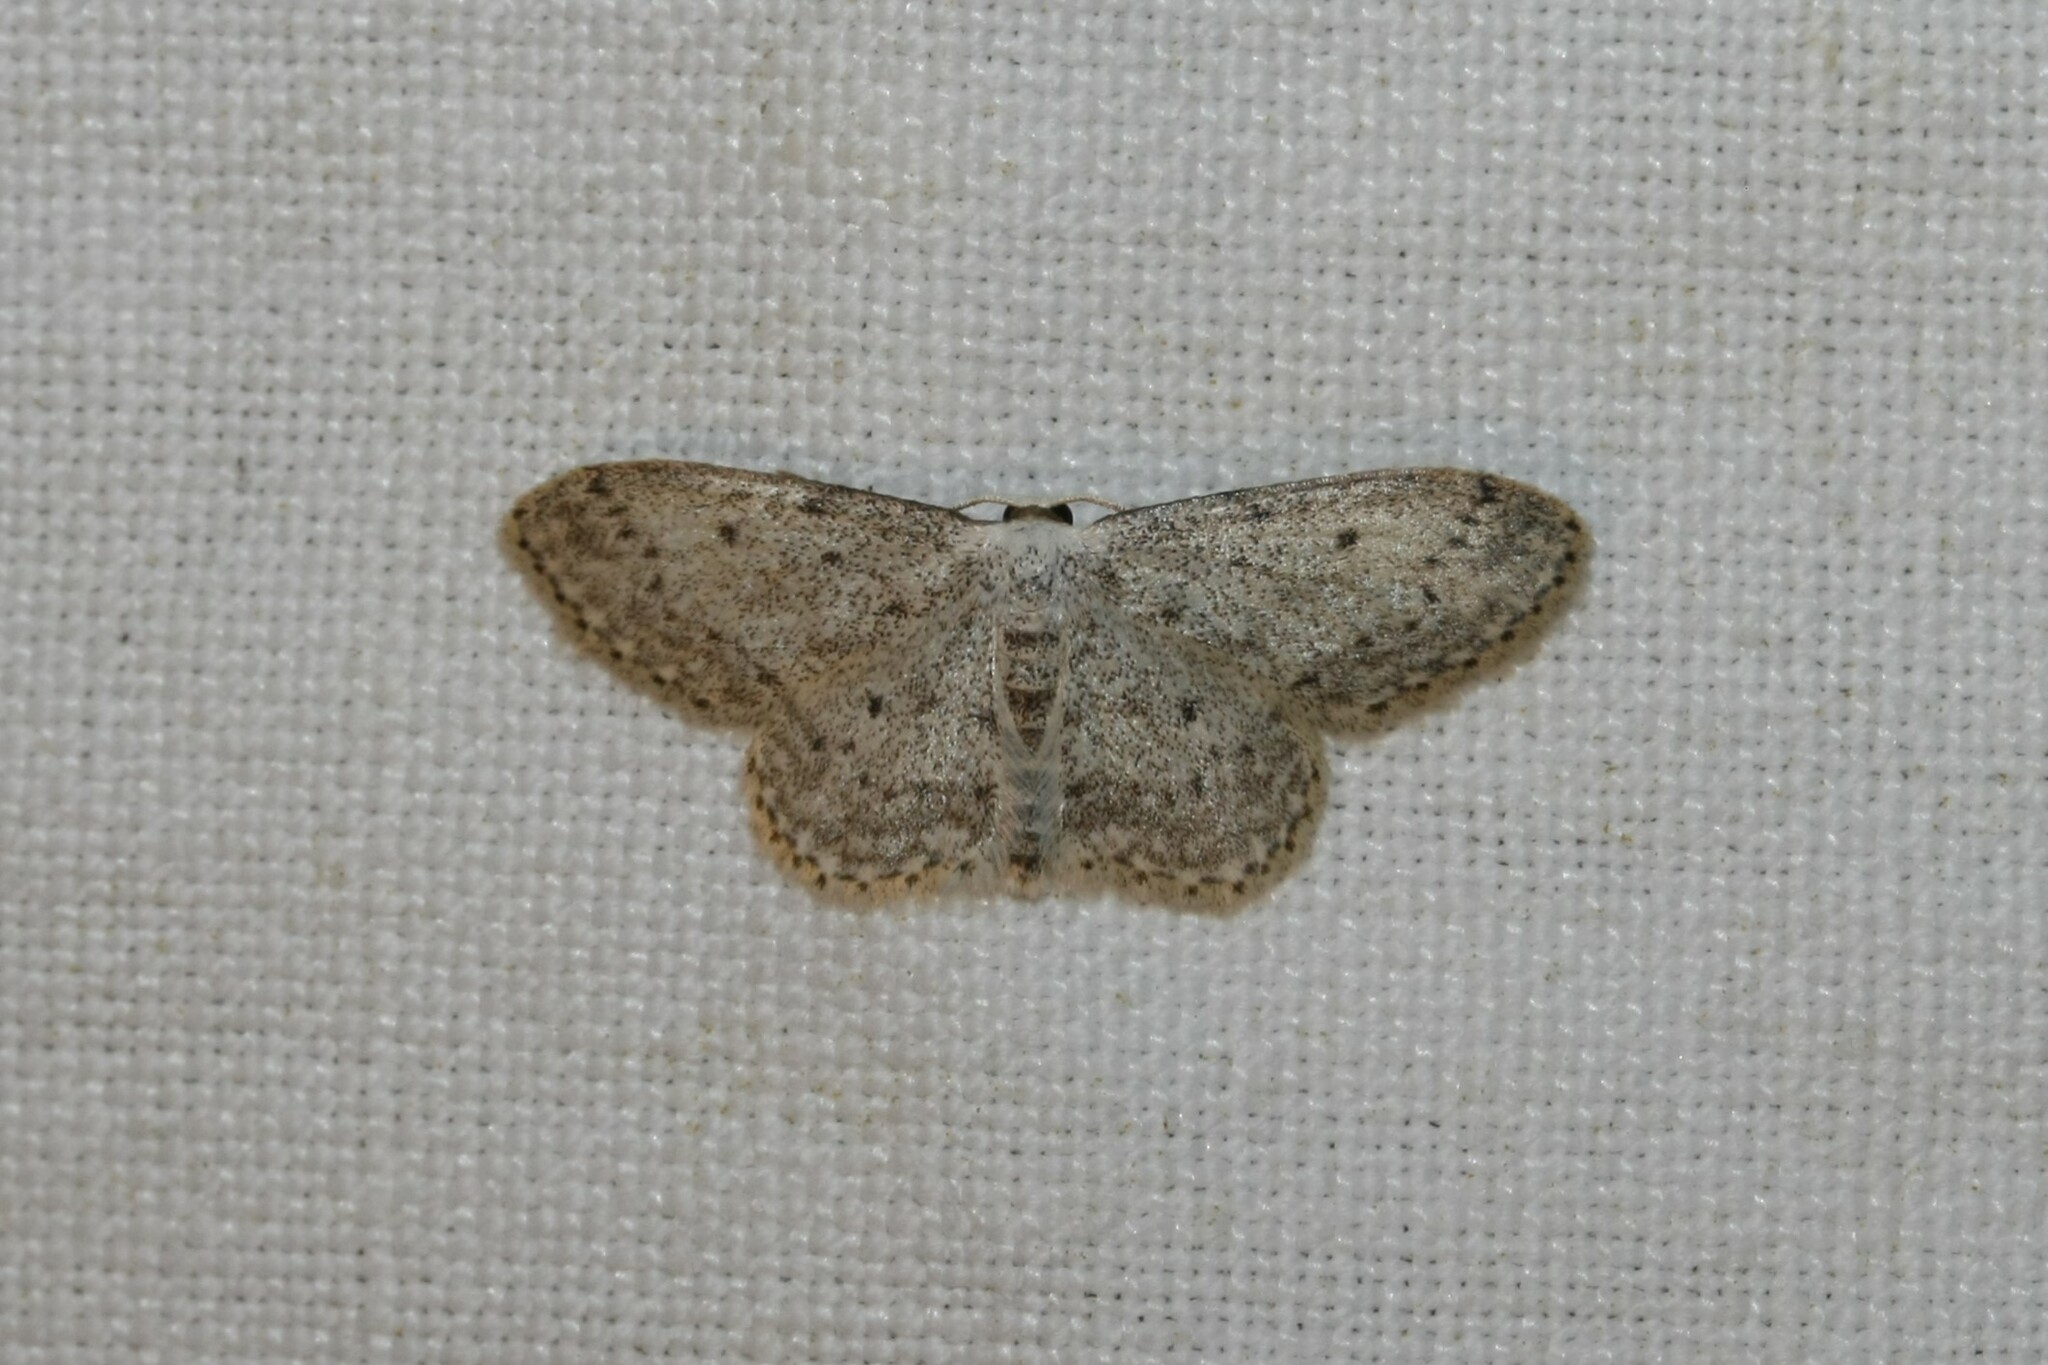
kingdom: Animalia
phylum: Arthropoda
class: Insecta
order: Lepidoptera
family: Geometridae
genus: Idaea
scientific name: Idaea seriata
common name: Small dusty wave
